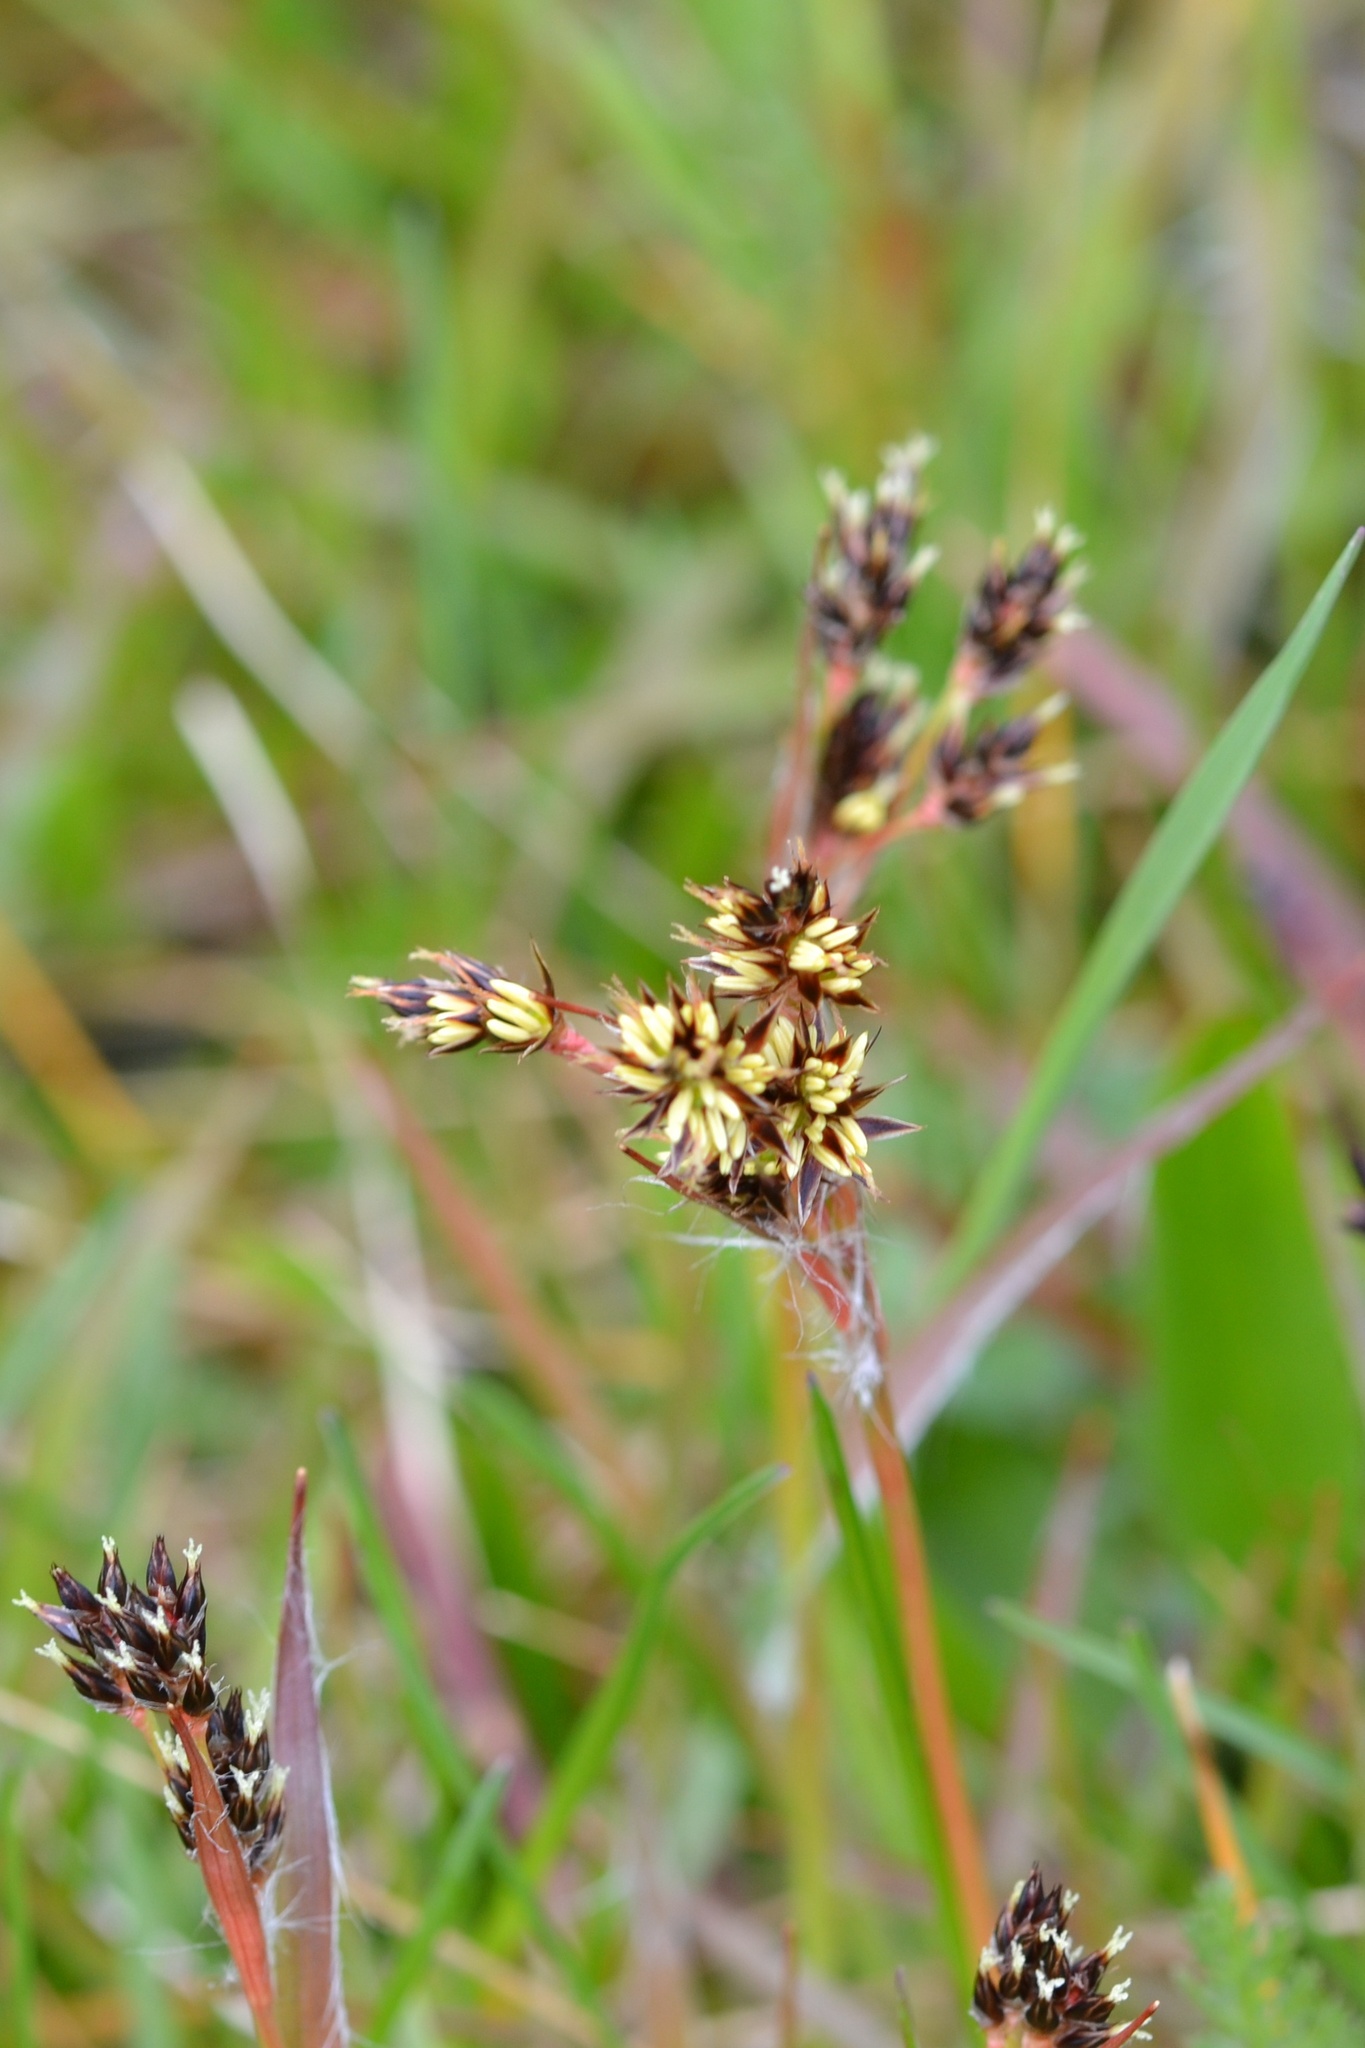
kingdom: Plantae
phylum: Tracheophyta
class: Liliopsida
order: Poales
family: Juncaceae
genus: Luzula
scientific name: Luzula campestris
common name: Field wood-rush
